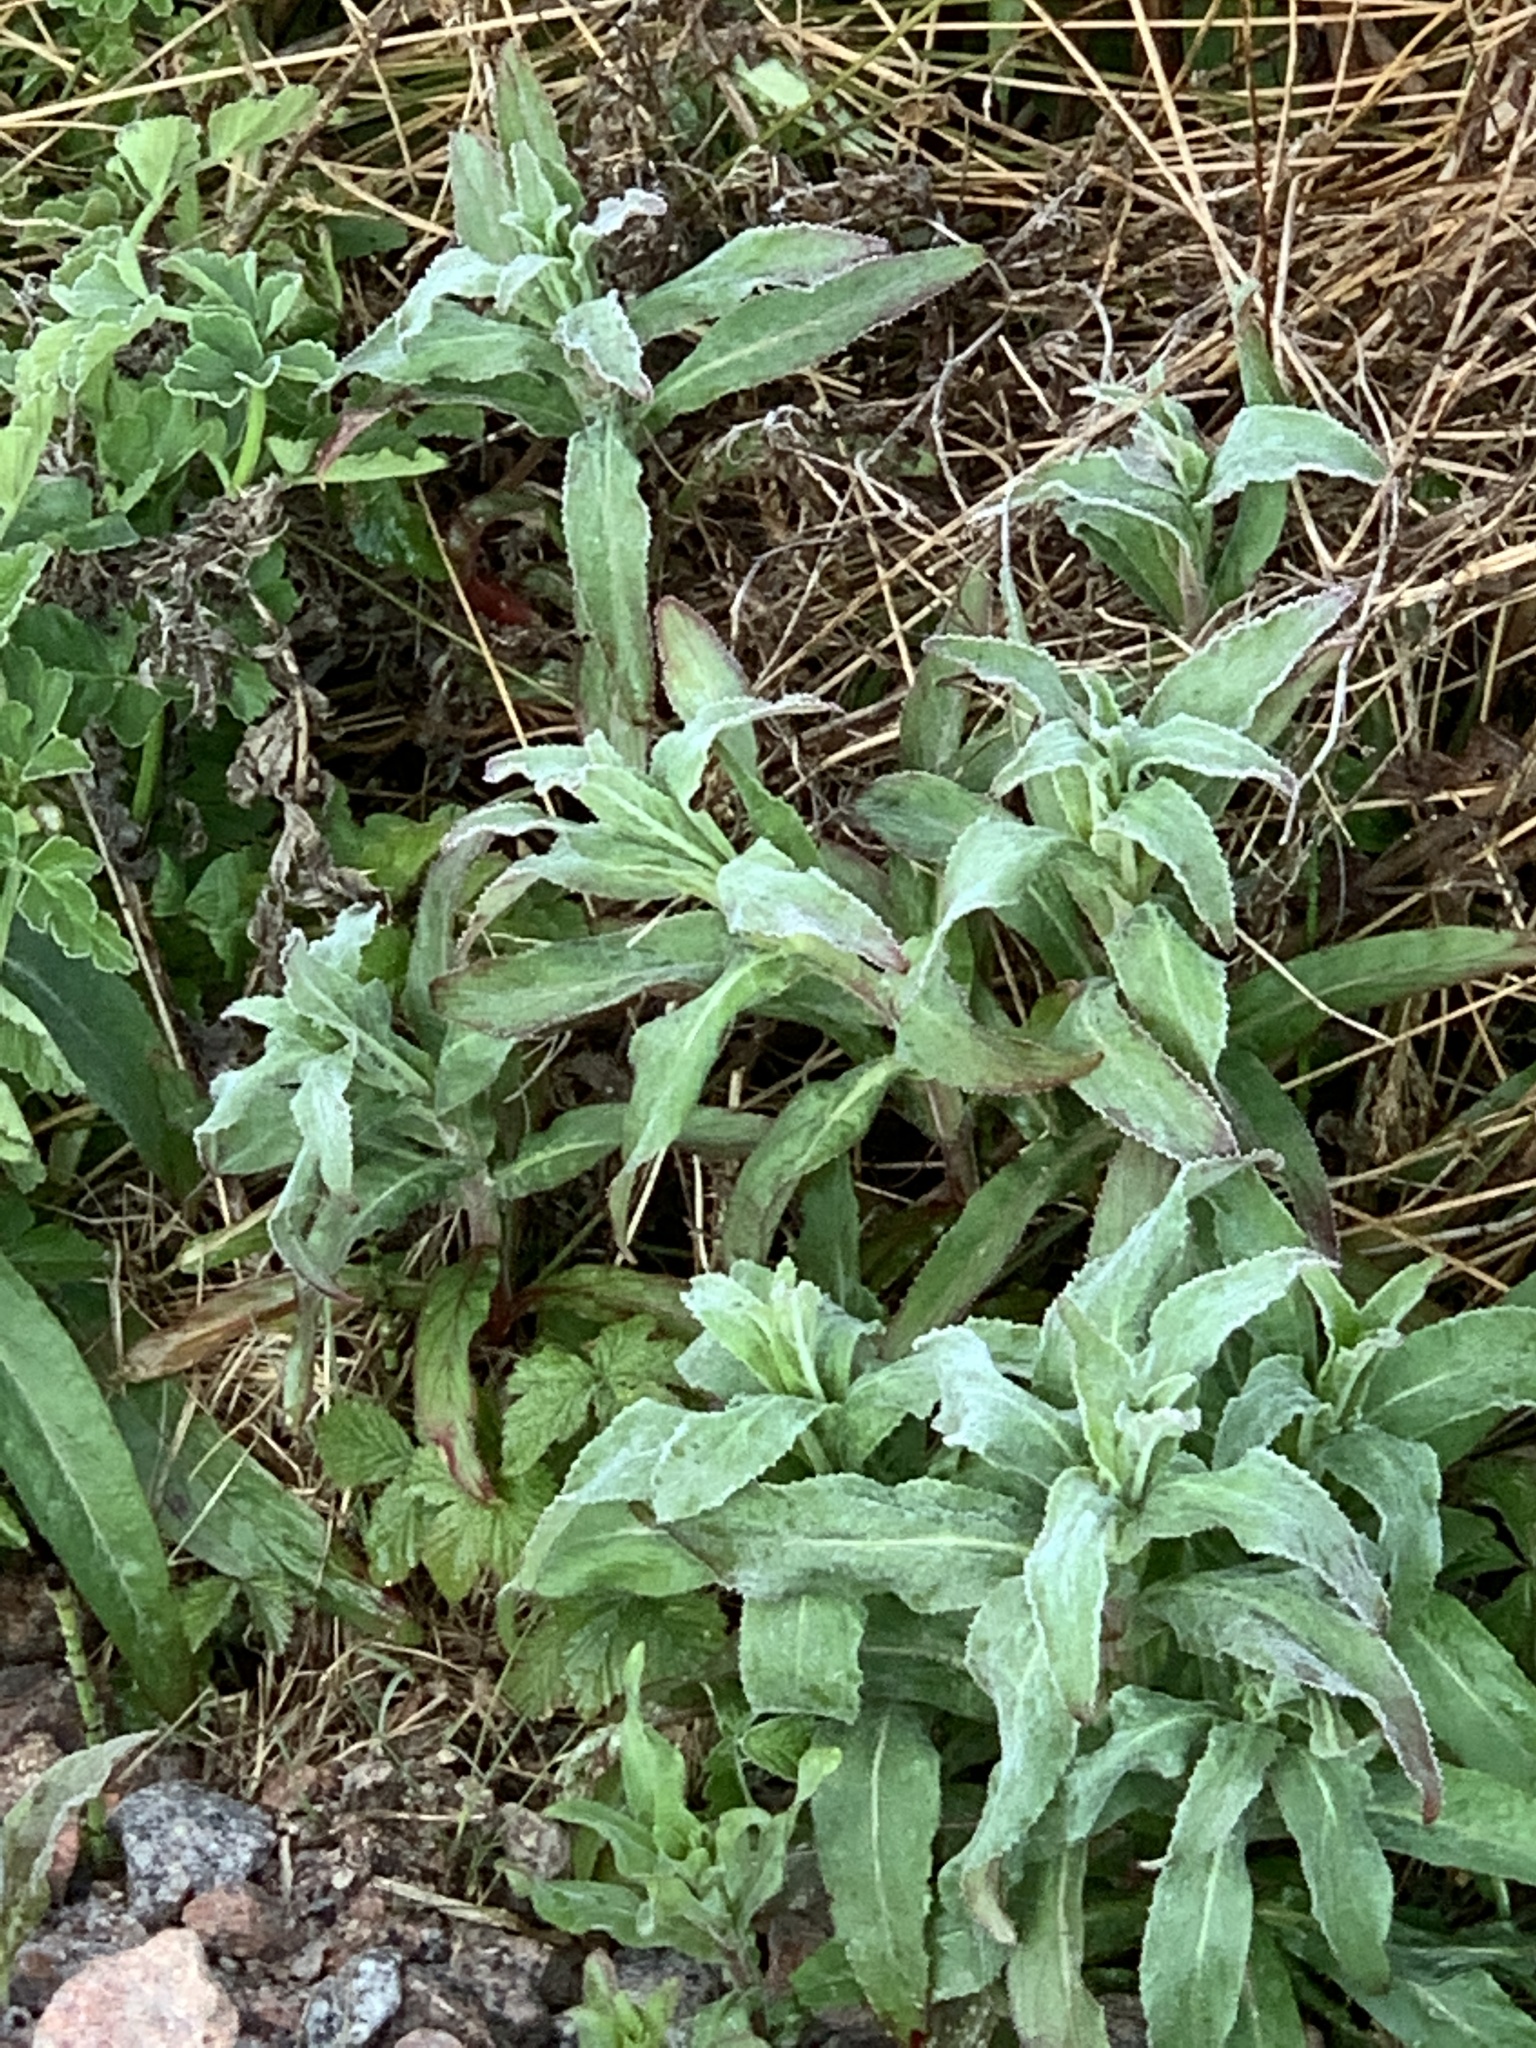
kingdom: Plantae
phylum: Tracheophyta
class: Magnoliopsida
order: Myrtales
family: Onagraceae
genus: Epilobium
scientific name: Epilobium hirsutum
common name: Great willowherb
